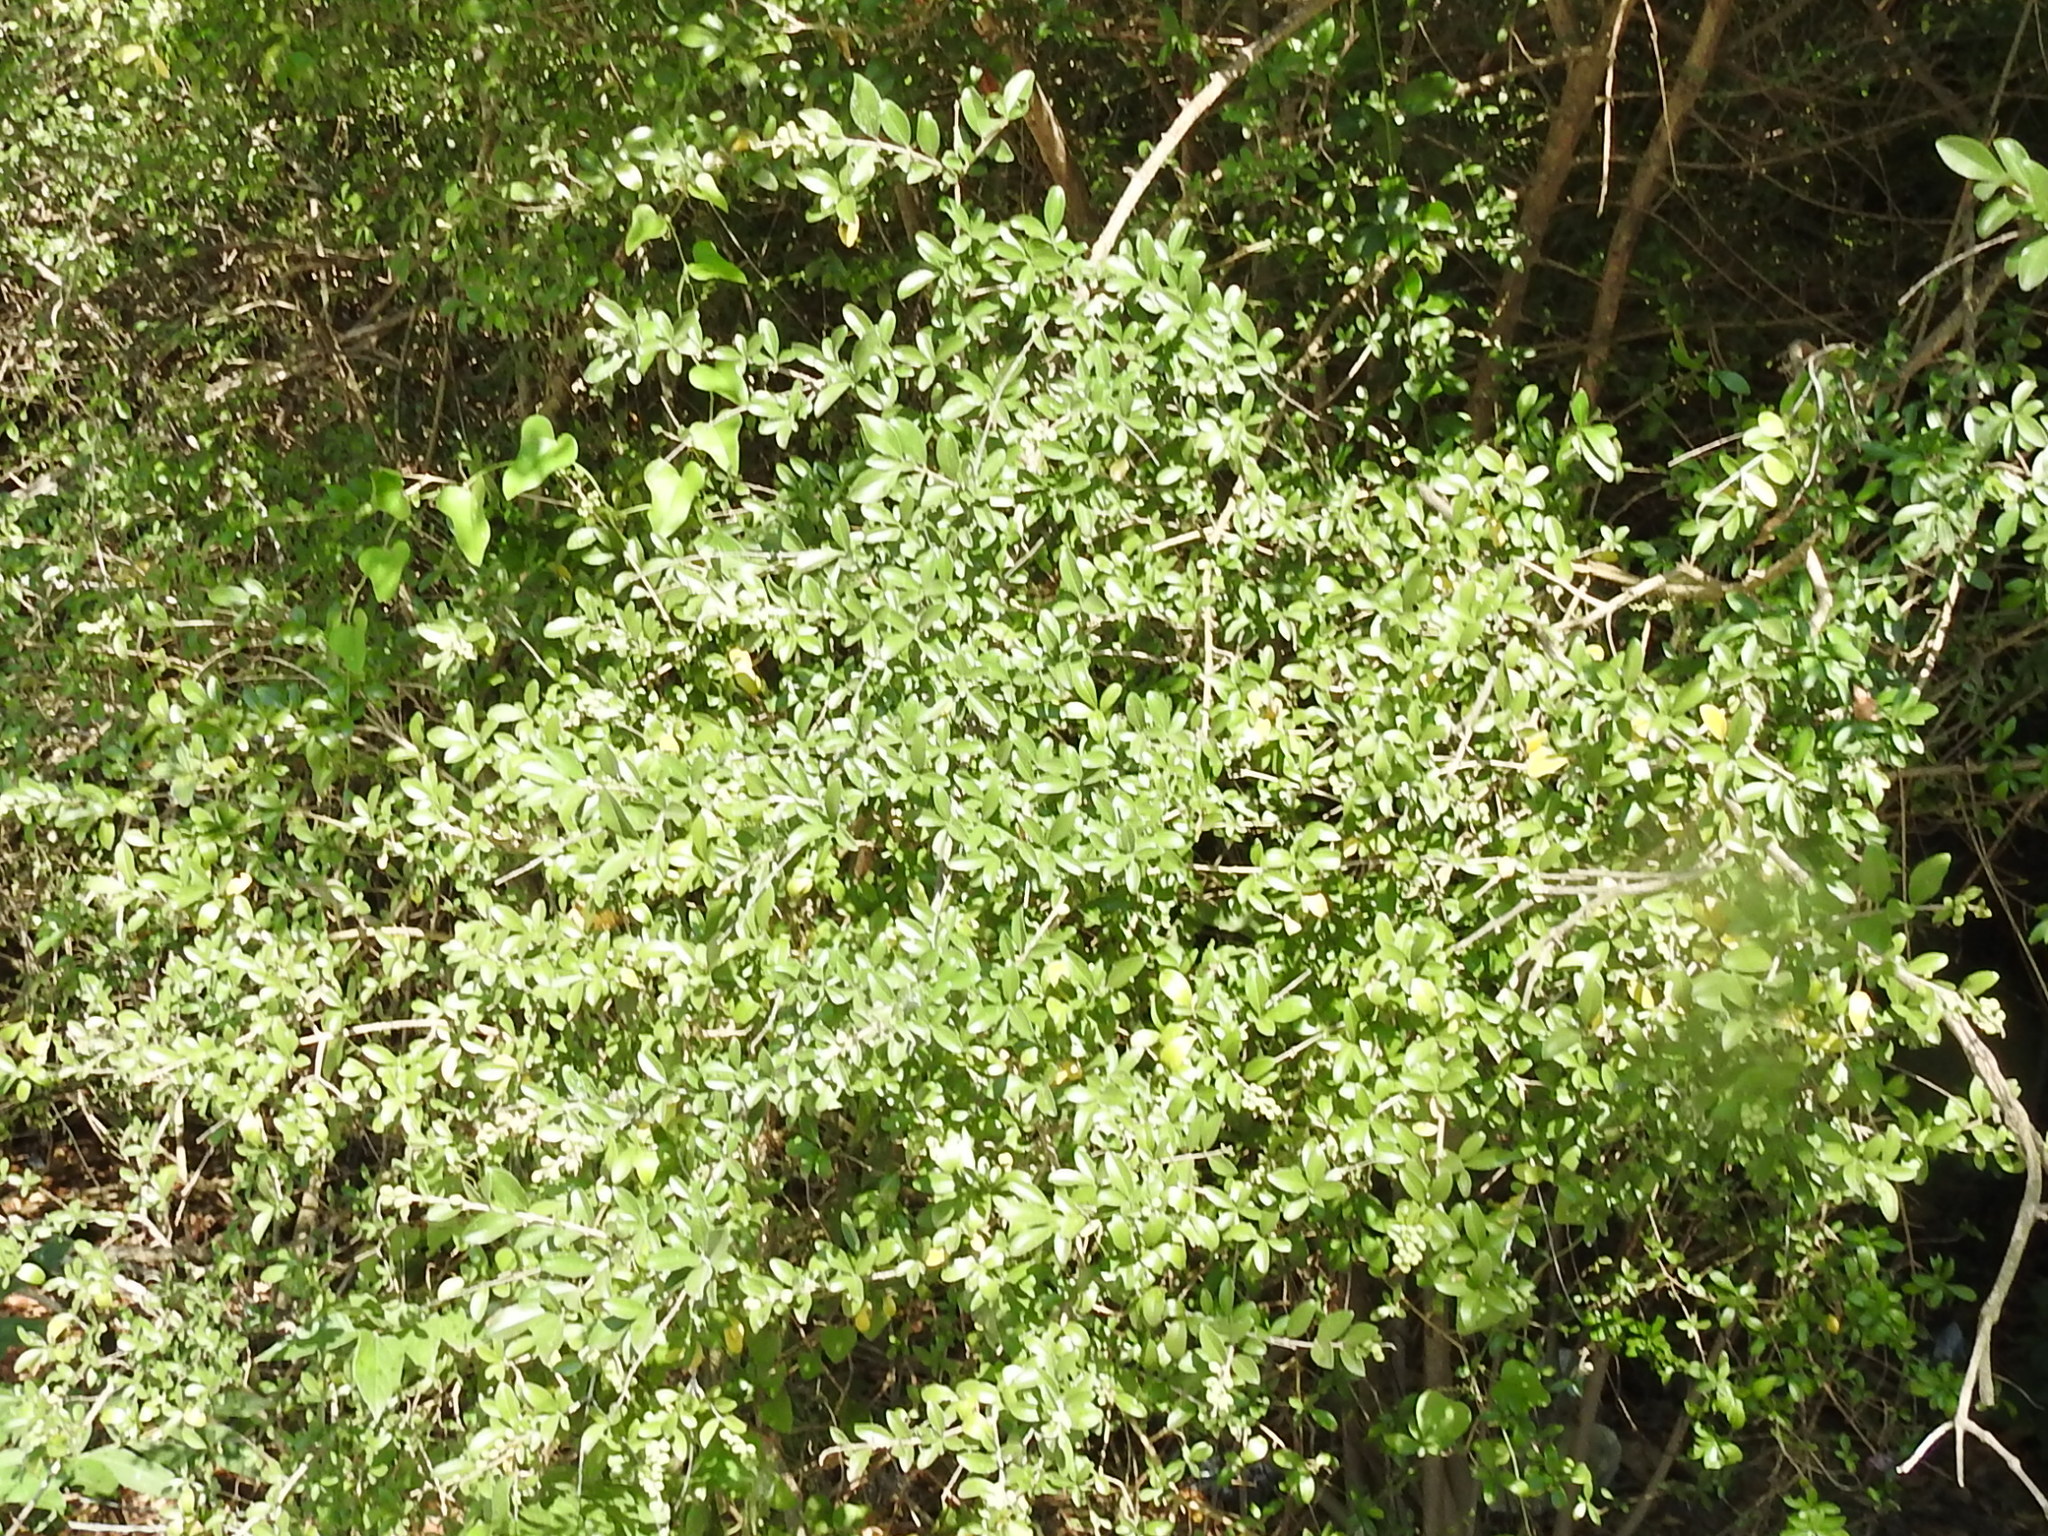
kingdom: Plantae
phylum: Tracheophyta
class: Magnoliopsida
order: Lamiales
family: Oleaceae
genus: Ligustrum
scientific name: Ligustrum quihoui
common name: Waxyleaf privet
